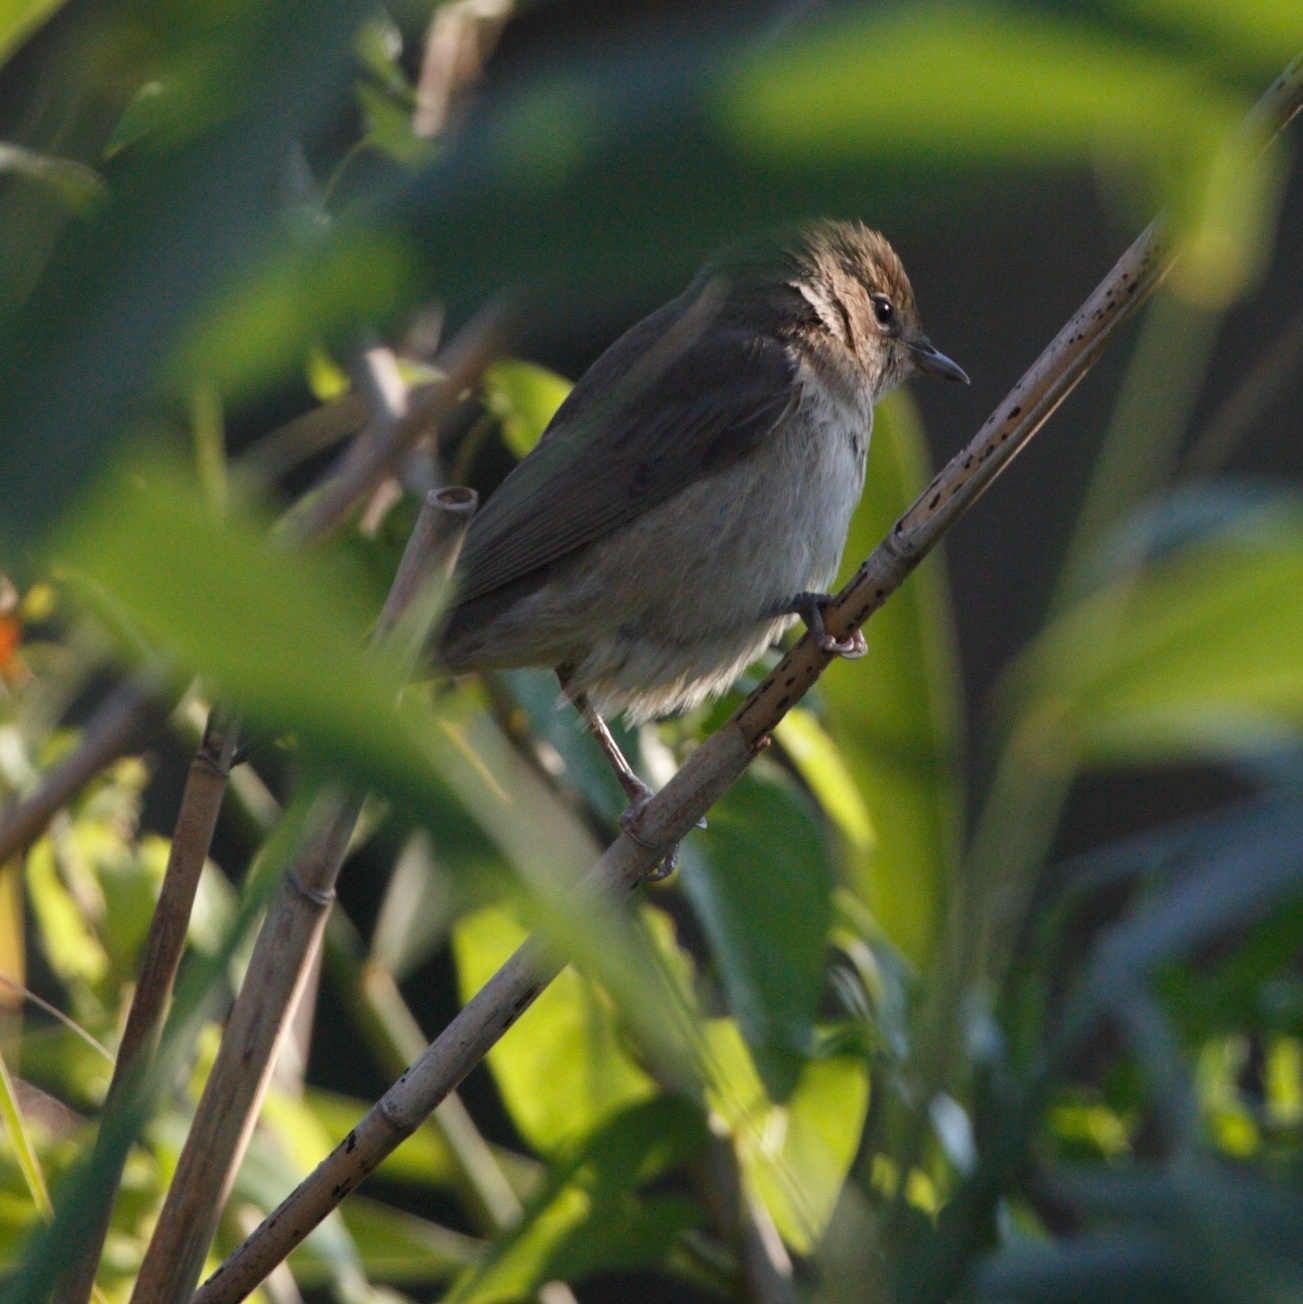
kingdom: Animalia
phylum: Chordata
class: Aves
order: Passeriformes
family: Sylviidae
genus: Sylvia
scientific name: Sylvia borin
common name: Garden warbler
